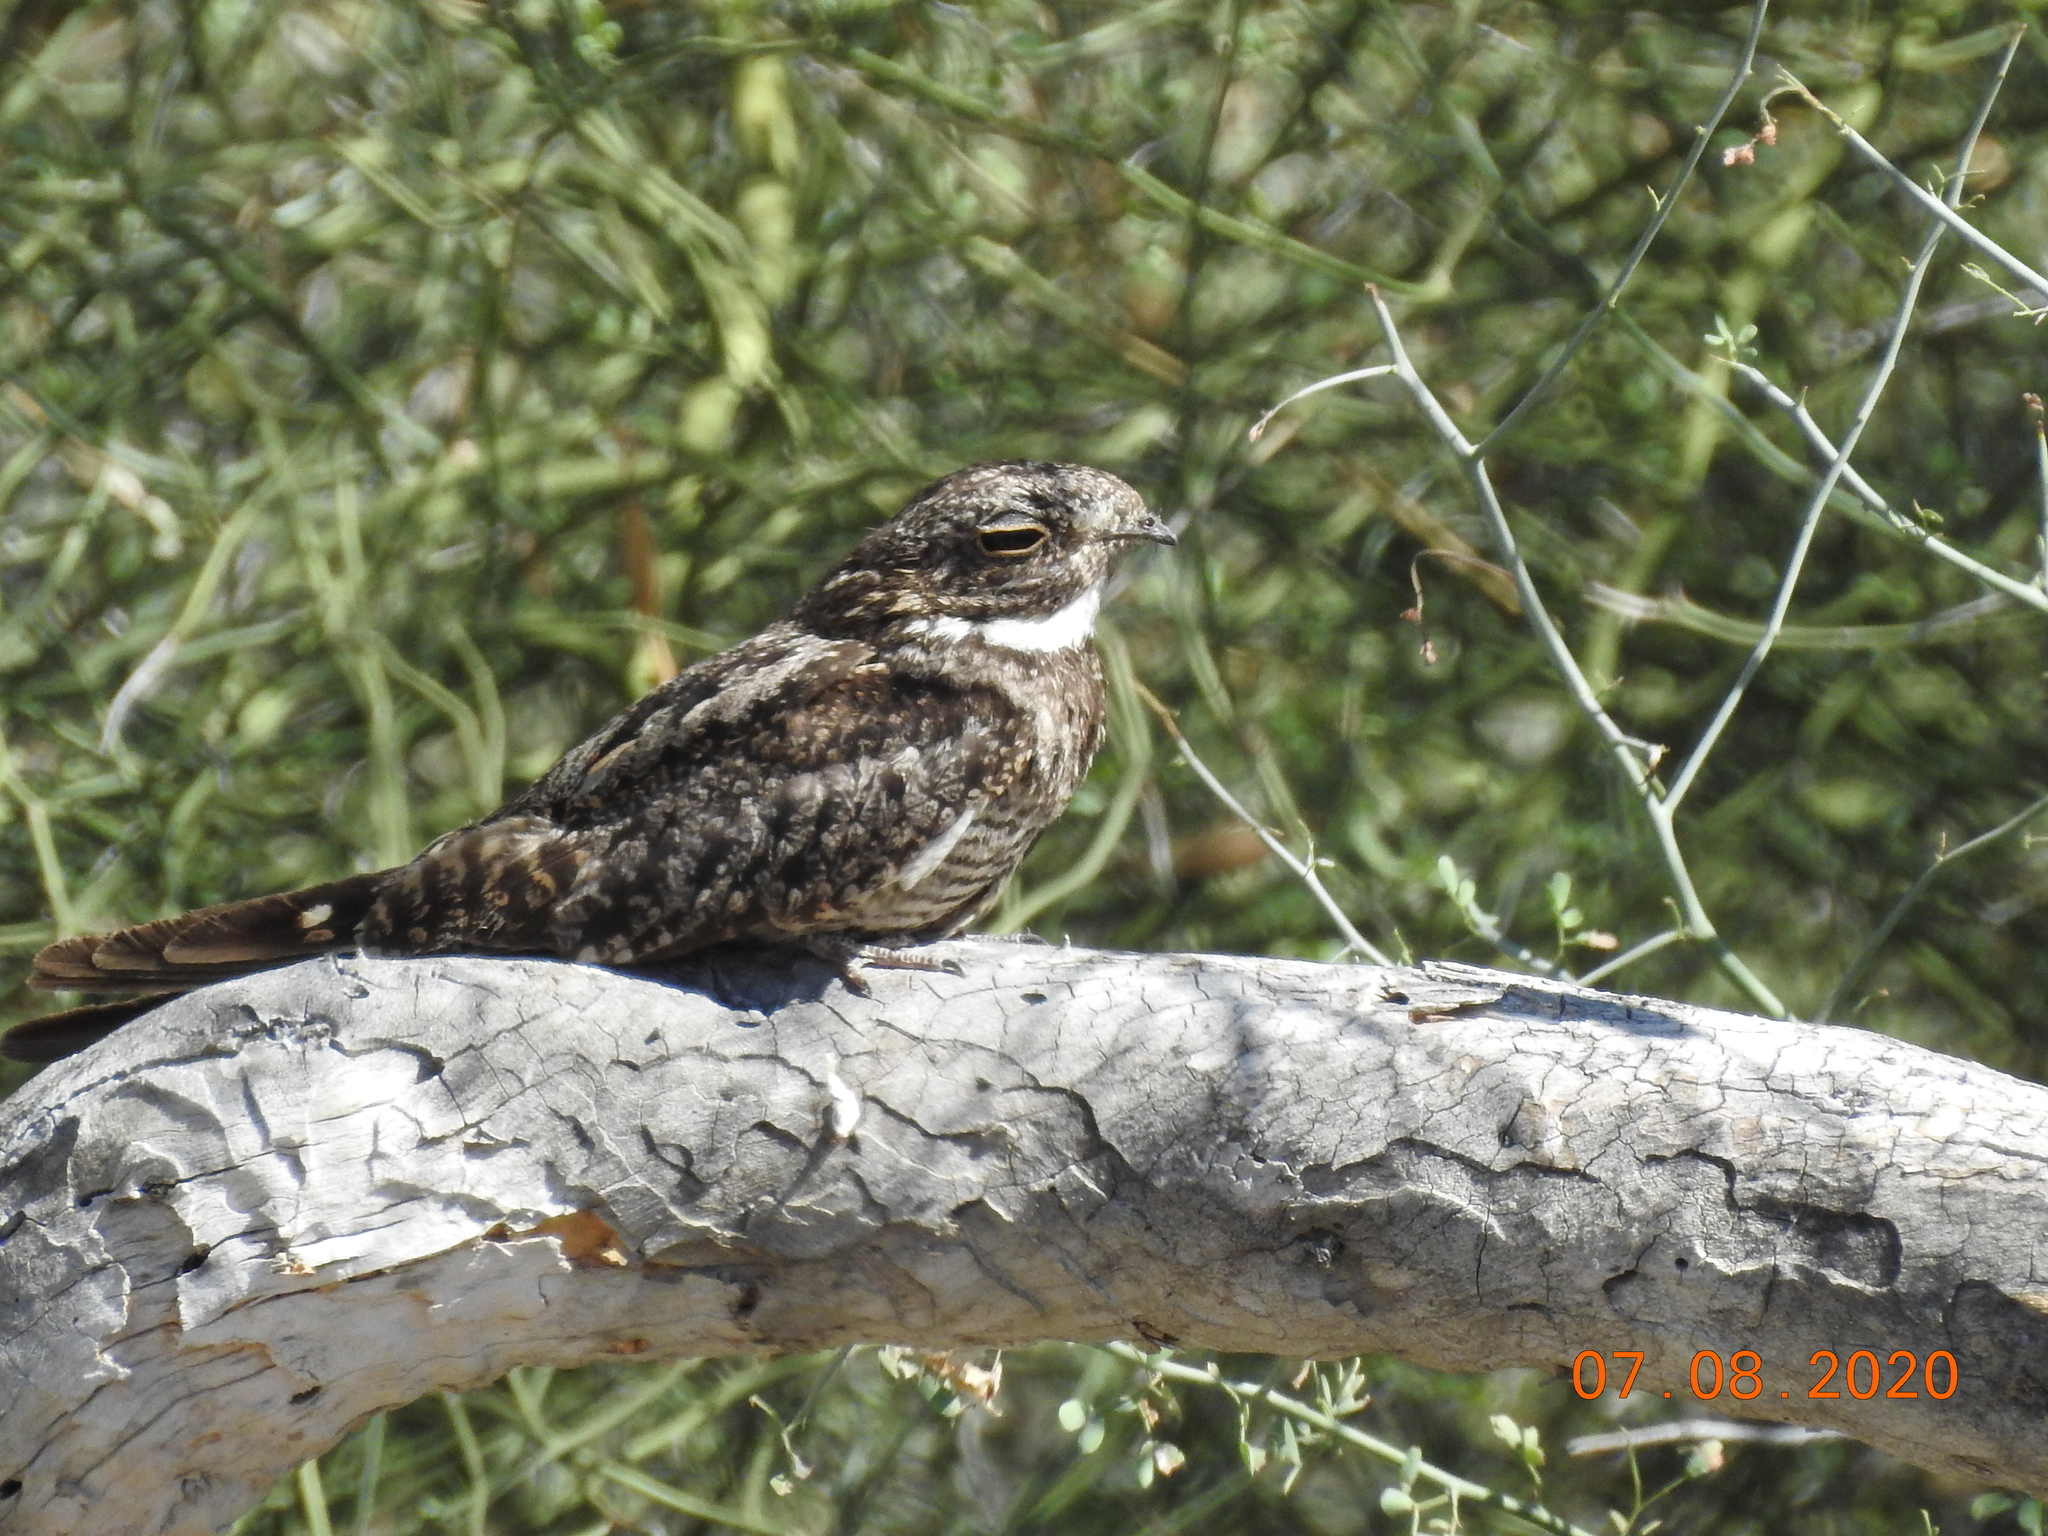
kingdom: Animalia
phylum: Chordata
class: Aves
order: Caprimulgiformes
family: Caprimulgidae
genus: Chordeiles
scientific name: Chordeiles acutipennis
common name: Lesser nighthawk
